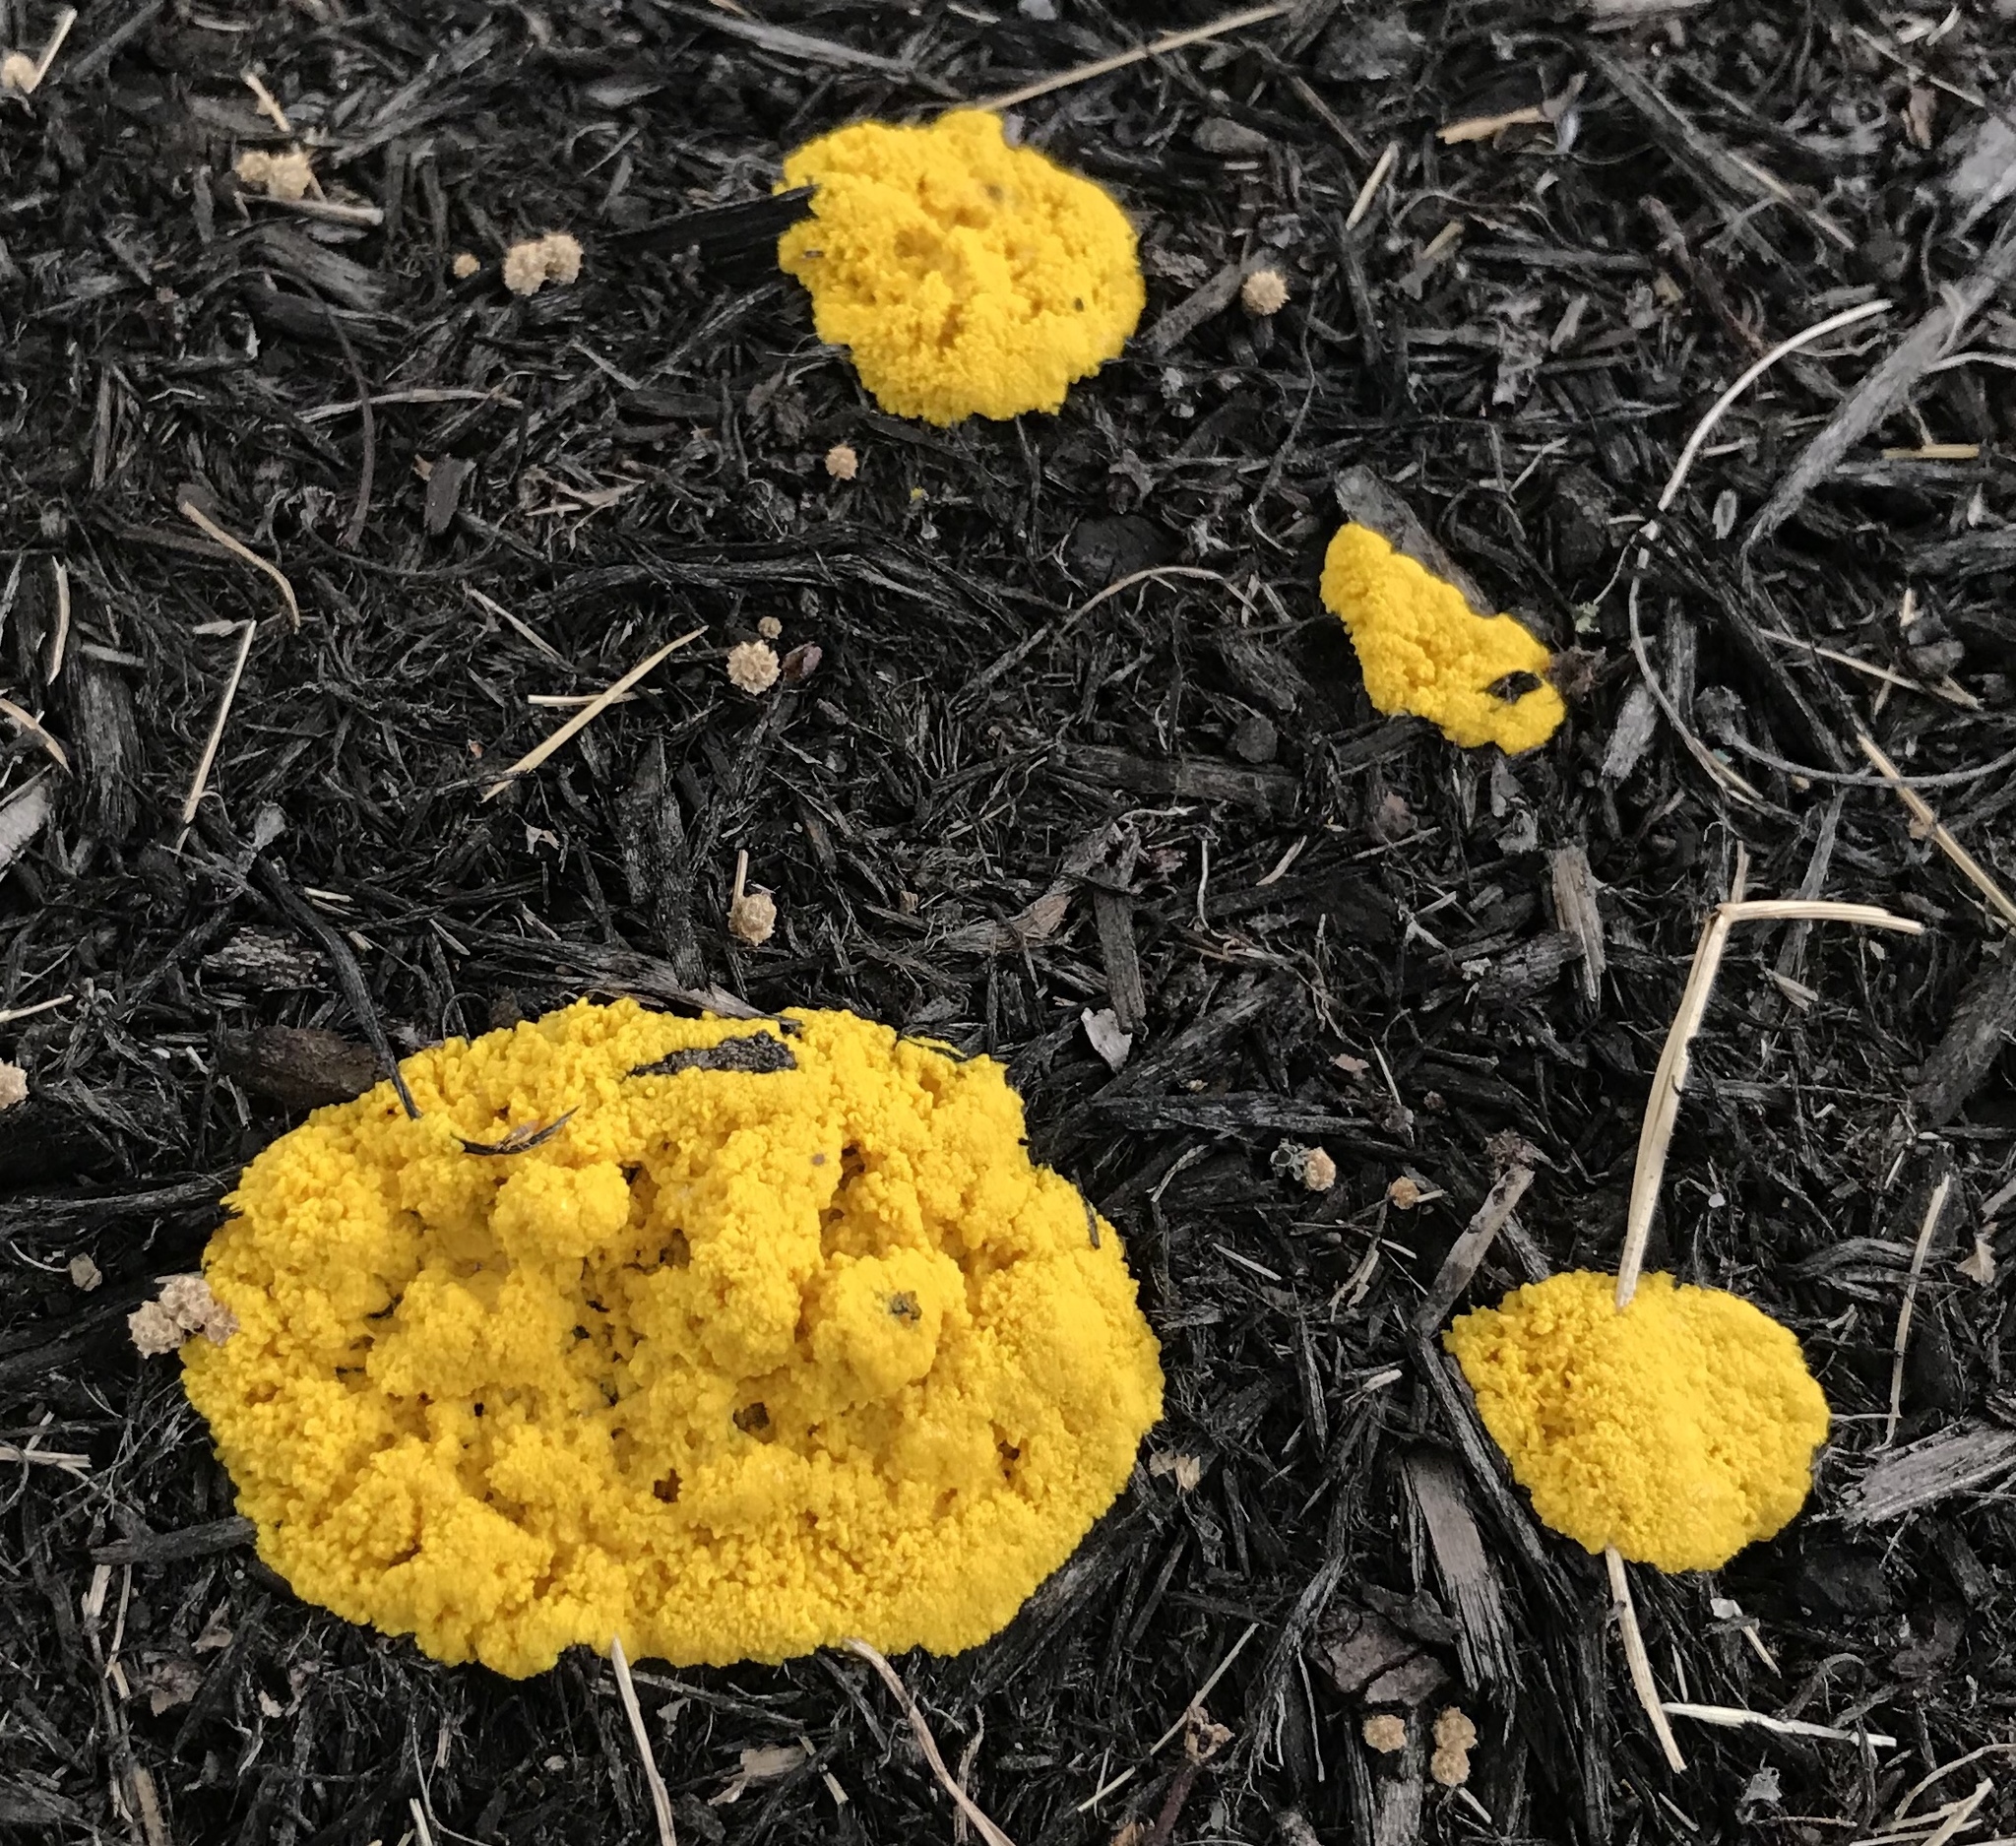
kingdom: Protozoa
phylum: Mycetozoa
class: Myxomycetes
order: Physarales
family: Physaraceae
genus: Fuligo
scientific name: Fuligo septica
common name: Dog vomit slime mold
